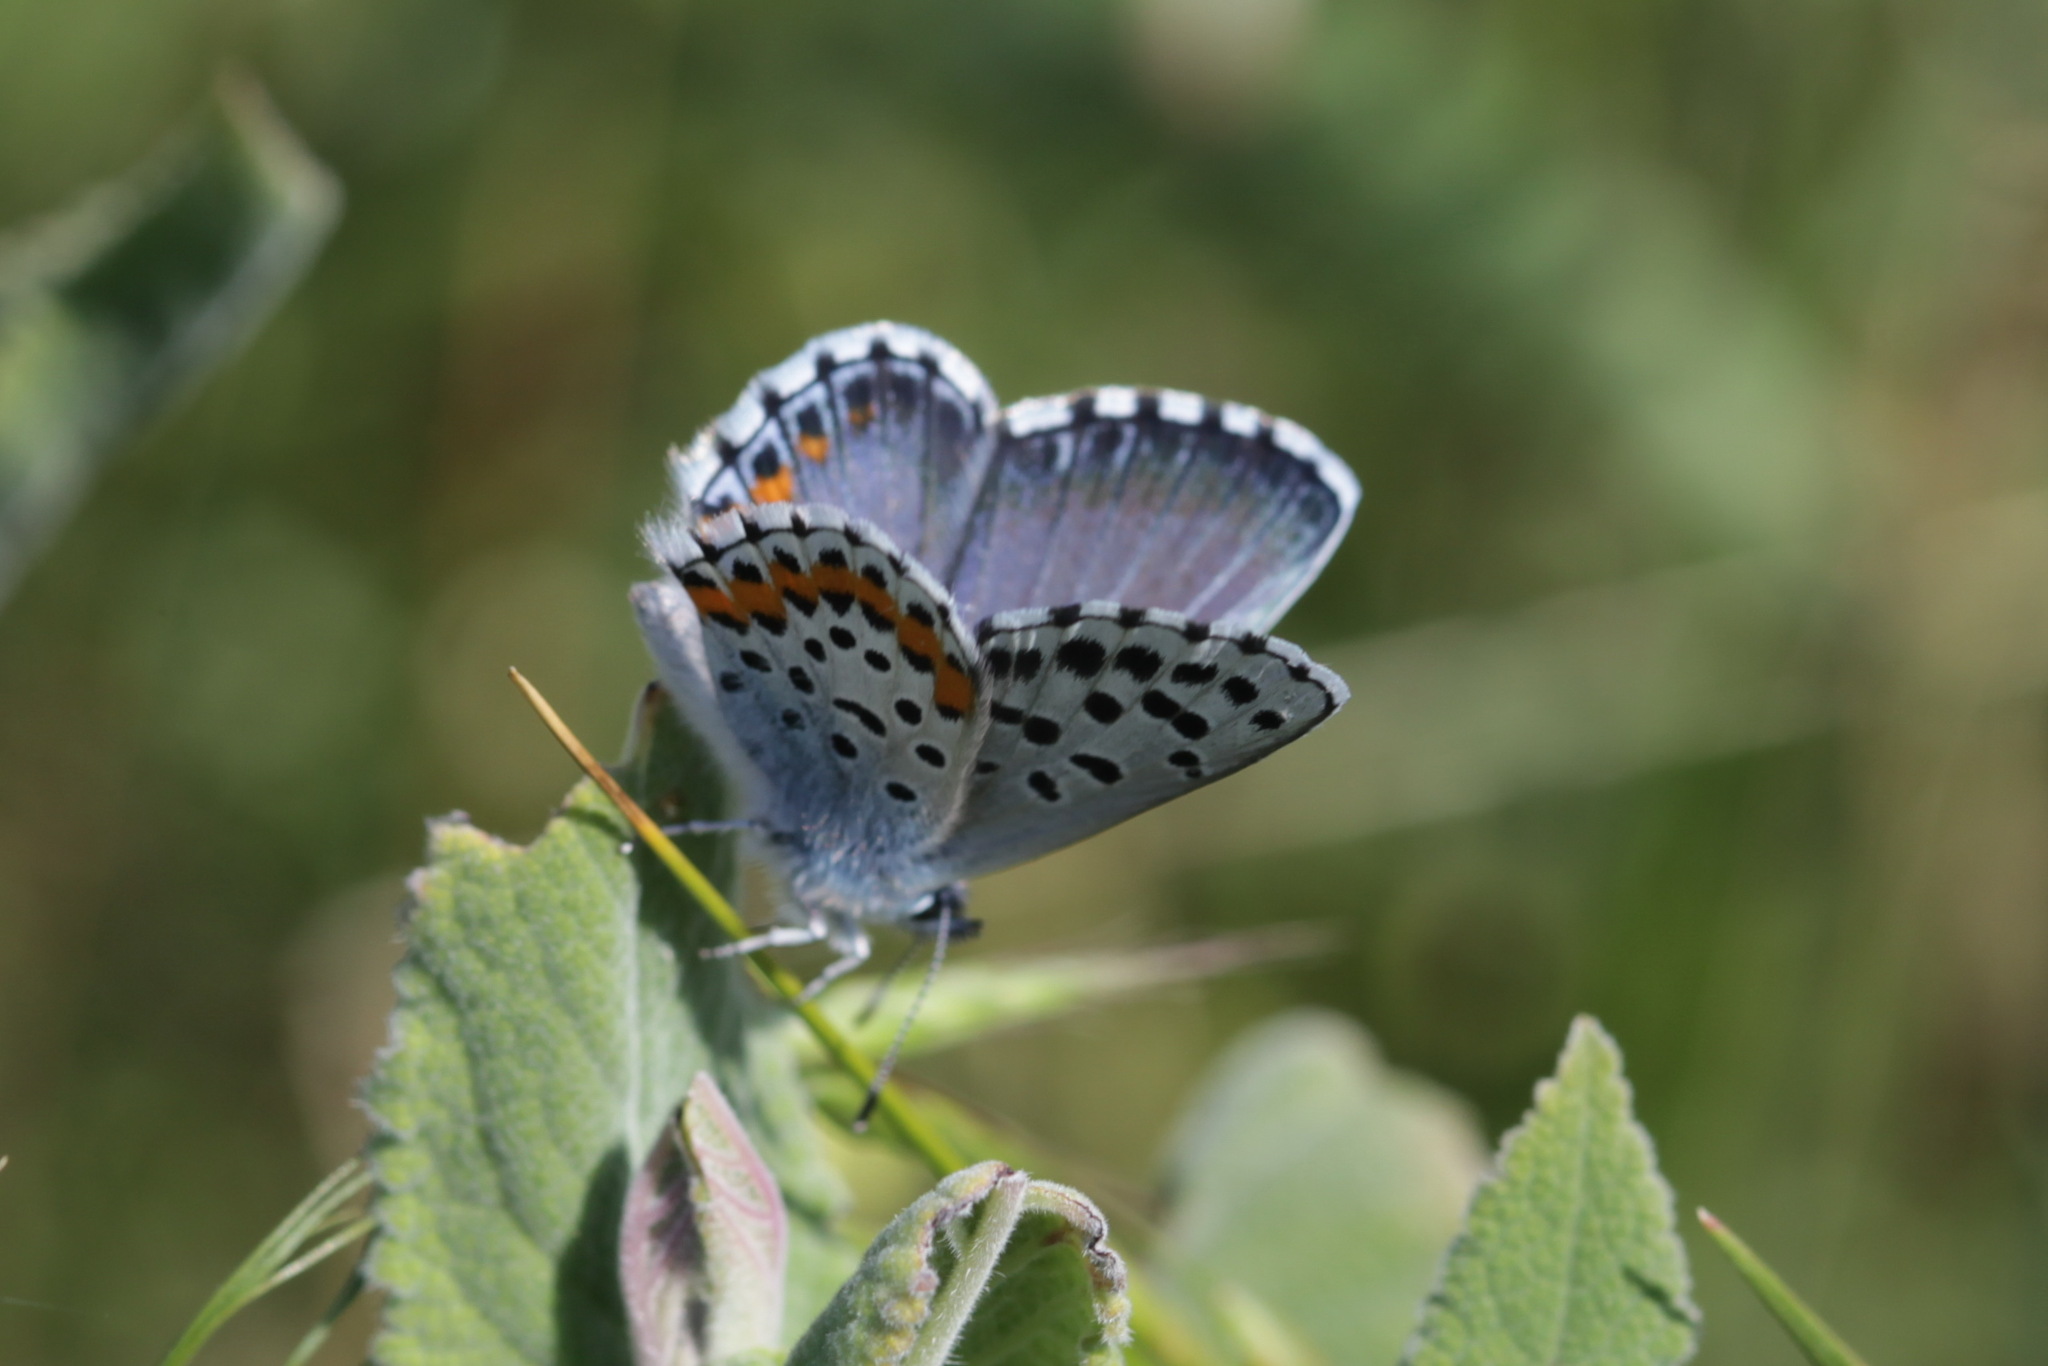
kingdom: Animalia
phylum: Arthropoda
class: Insecta
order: Lepidoptera
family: Lycaenidae
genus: Pseudophilotes
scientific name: Pseudophilotes bavius
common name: Bavius blue
